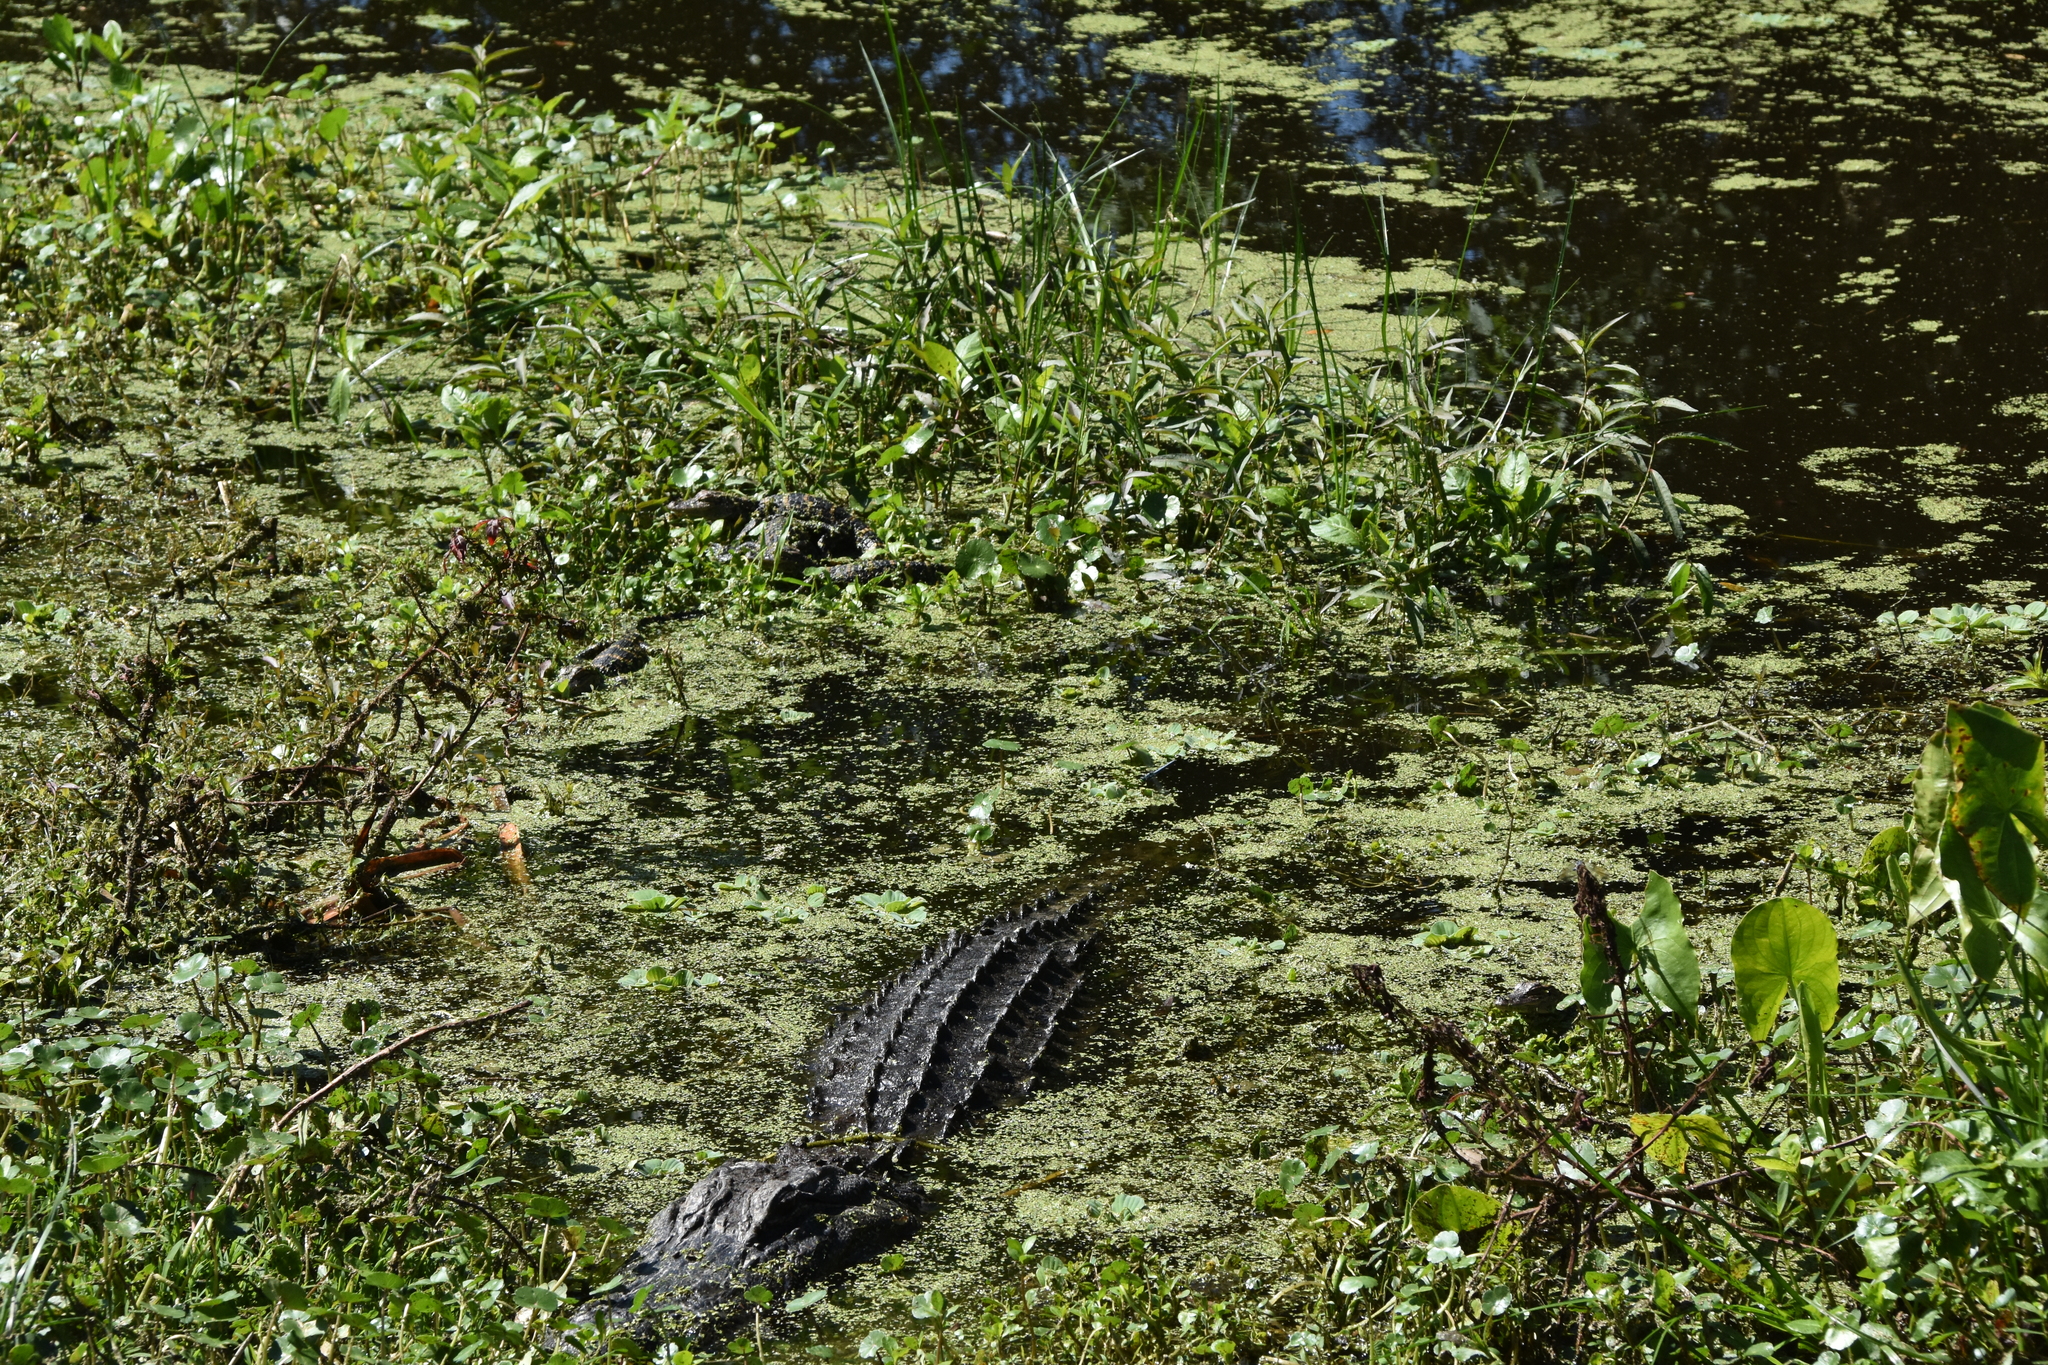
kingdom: Animalia
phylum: Chordata
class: Crocodylia
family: Alligatoridae
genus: Alligator
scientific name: Alligator mississippiensis
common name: American alligator
